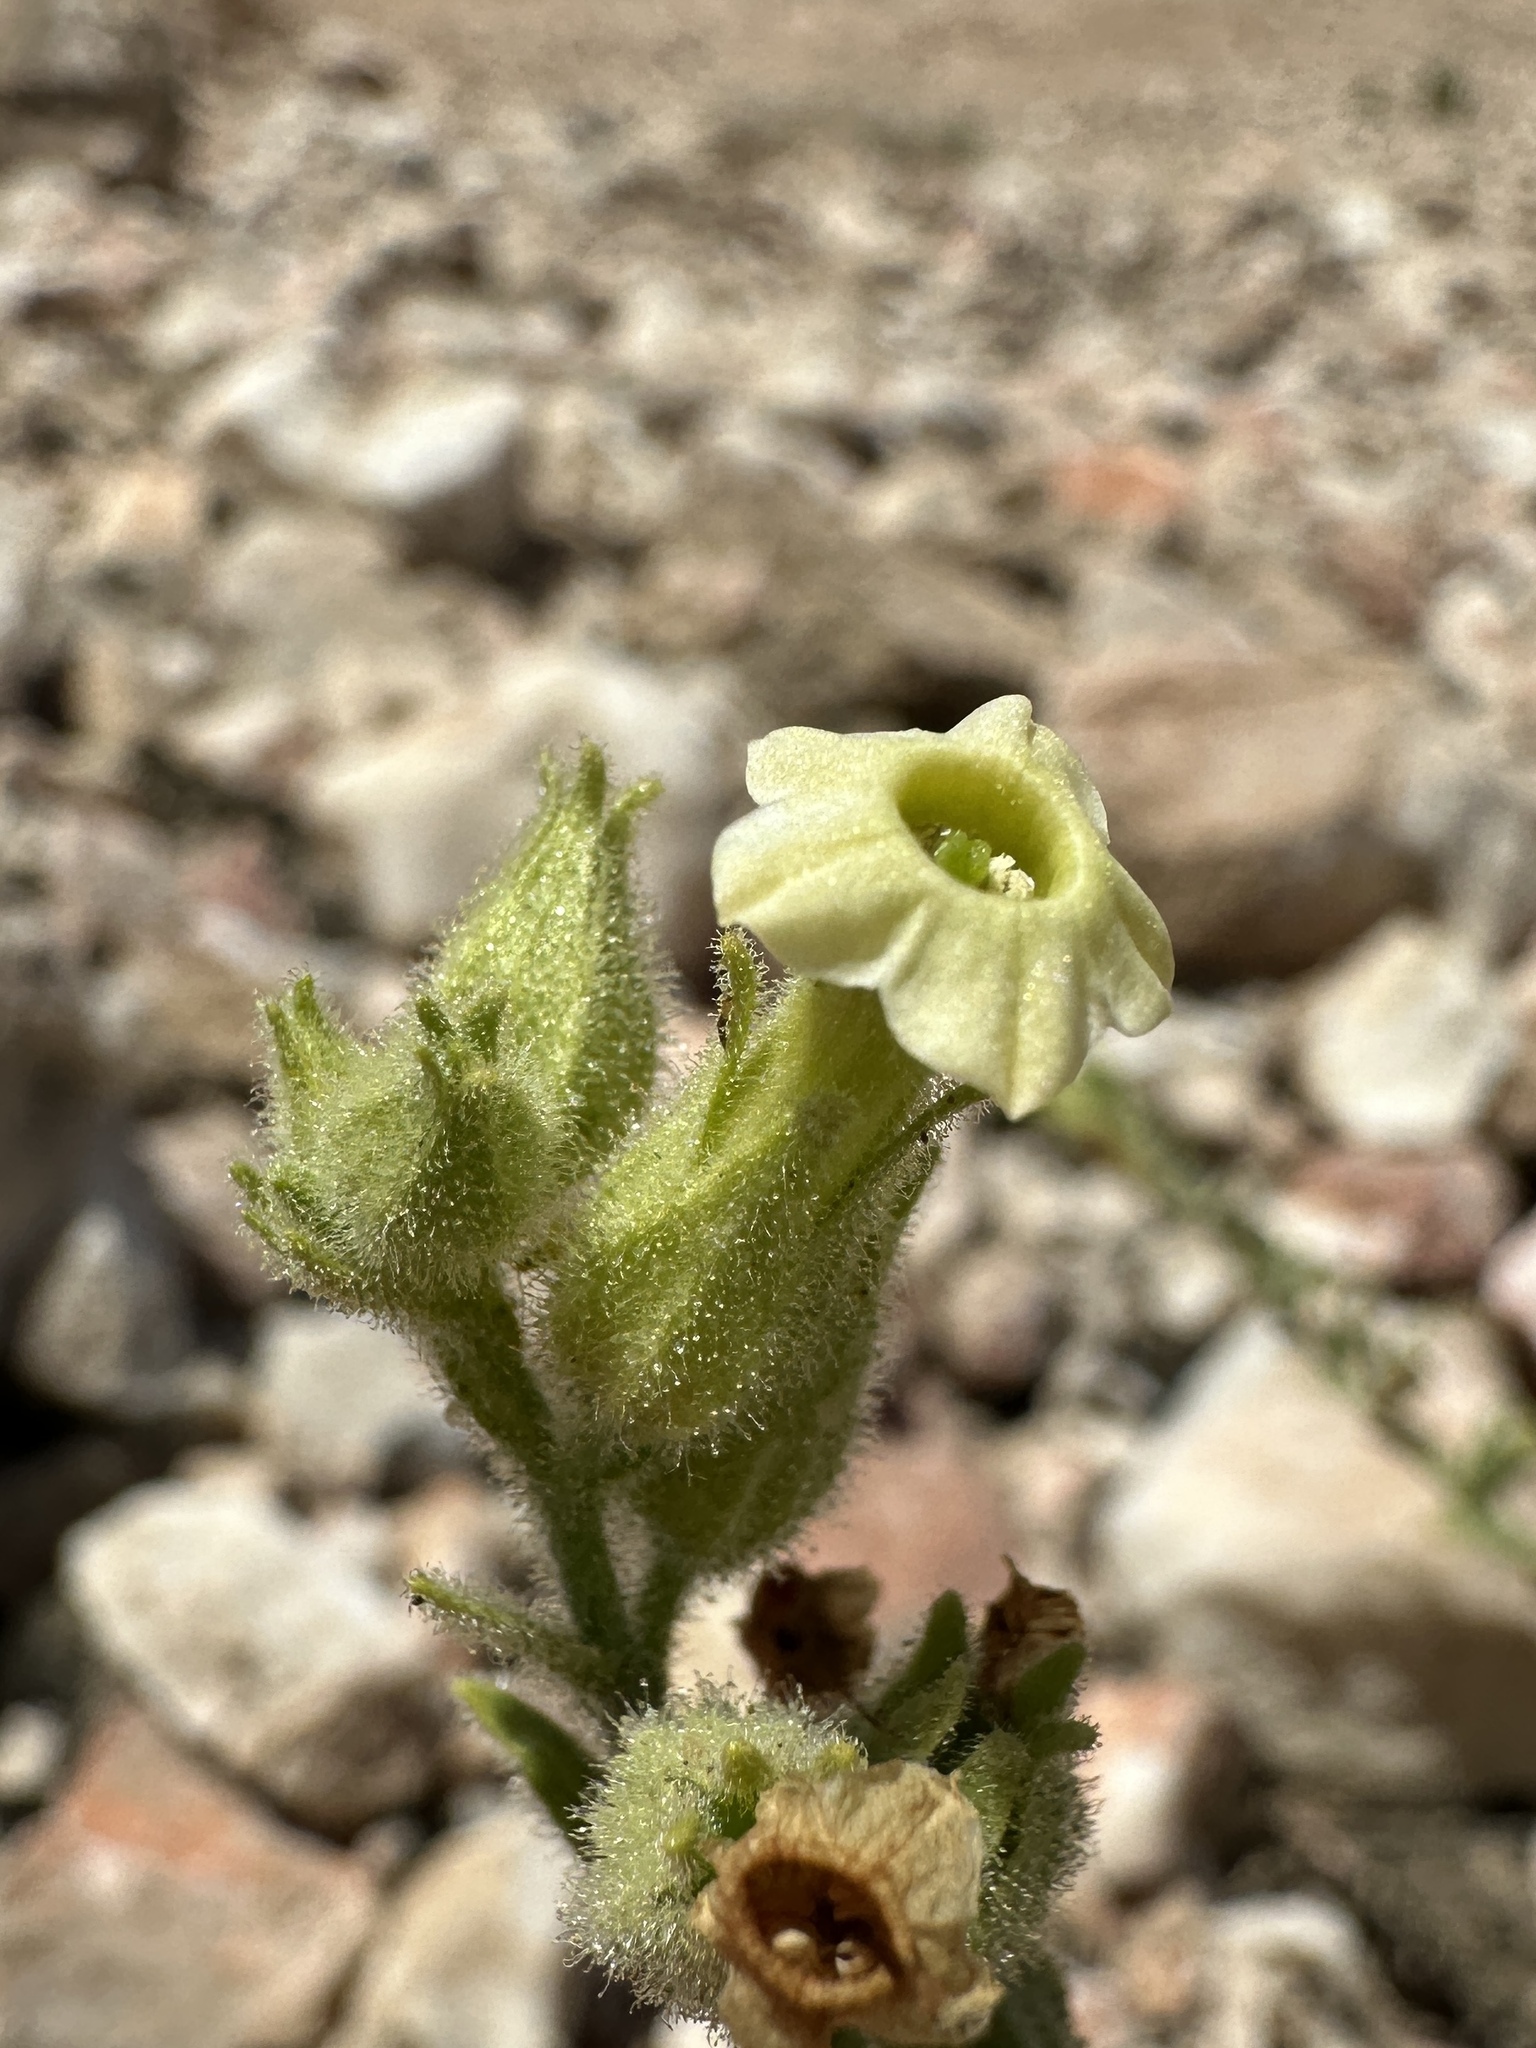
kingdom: Plantae
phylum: Tracheophyta
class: Magnoliopsida
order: Solanales
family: Solanaceae
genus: Nicotiana
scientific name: Nicotiana obtusifolia
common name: Desert tobacco
